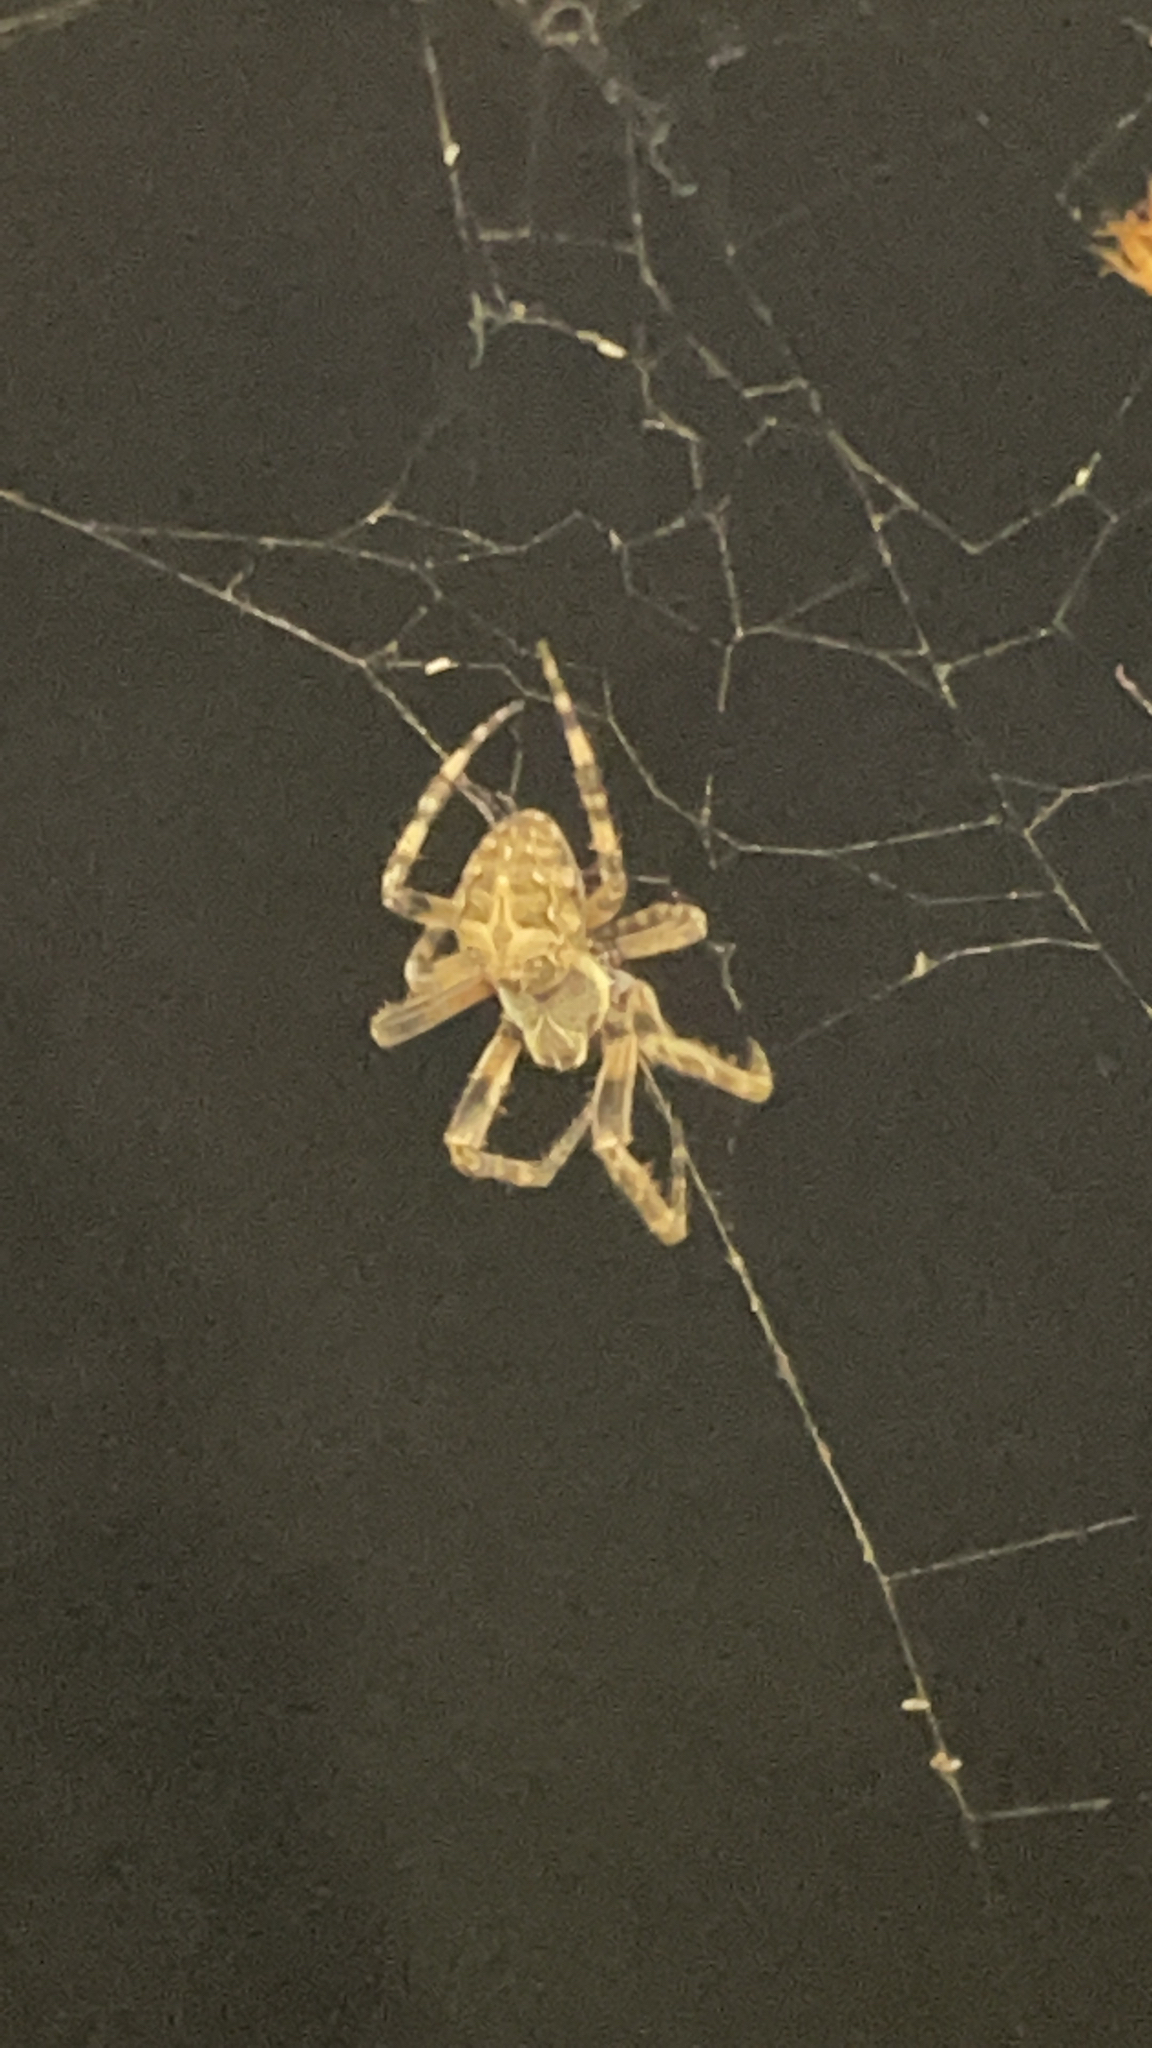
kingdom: Animalia
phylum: Arthropoda
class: Arachnida
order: Araneae
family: Araneidae
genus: Larinioides
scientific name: Larinioides sclopetarius
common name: Bridge orbweaver
